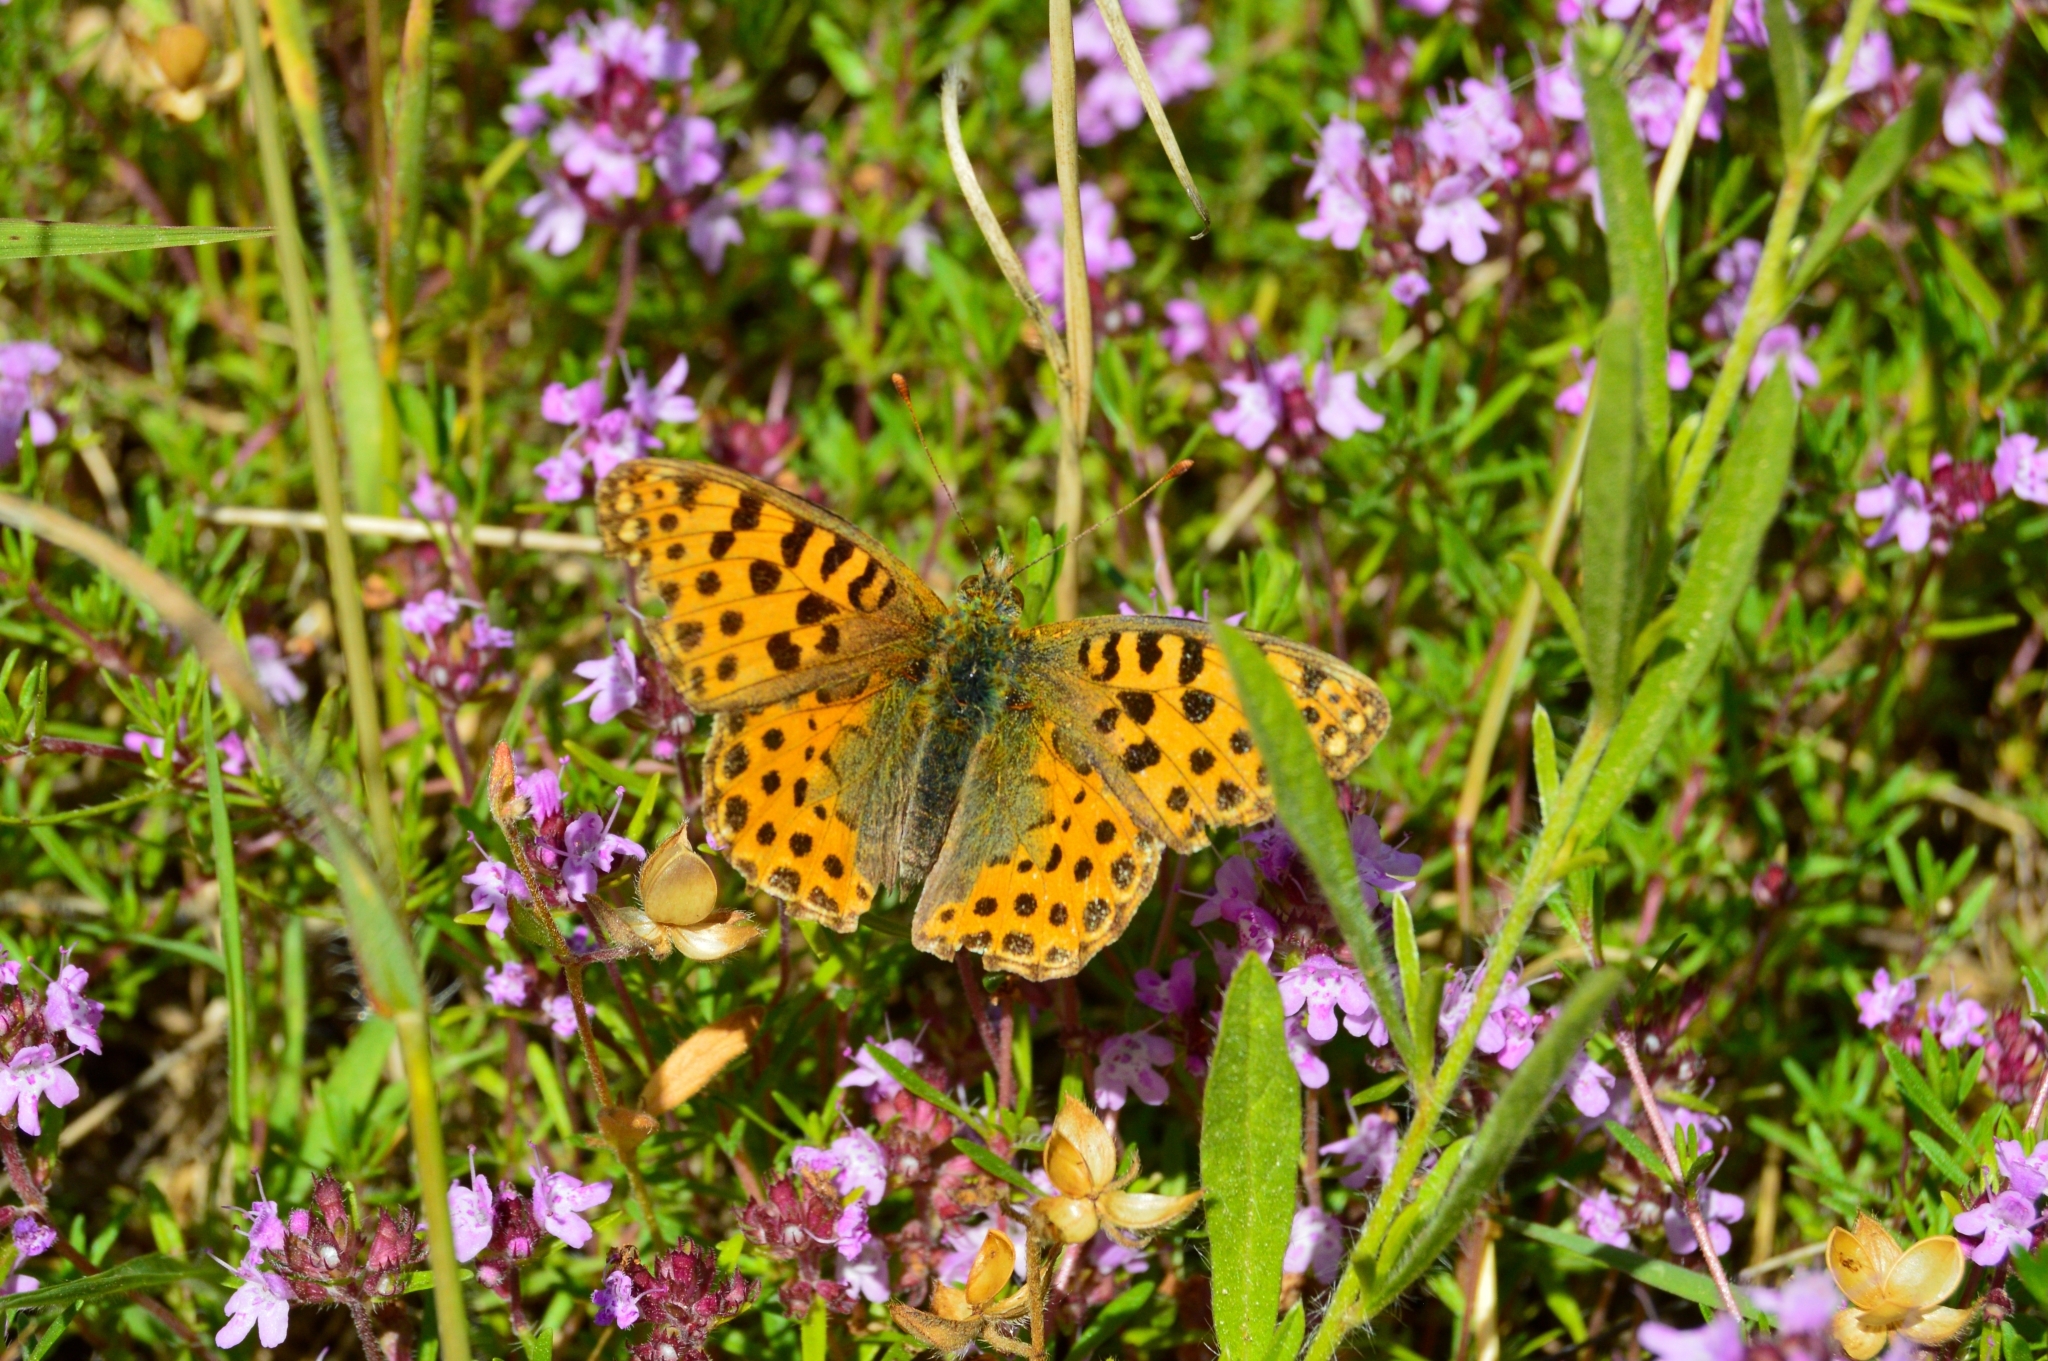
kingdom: Animalia
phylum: Arthropoda
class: Insecta
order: Lepidoptera
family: Nymphalidae
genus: Issoria
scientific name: Issoria lathonia
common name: Queen of spain fritillary
